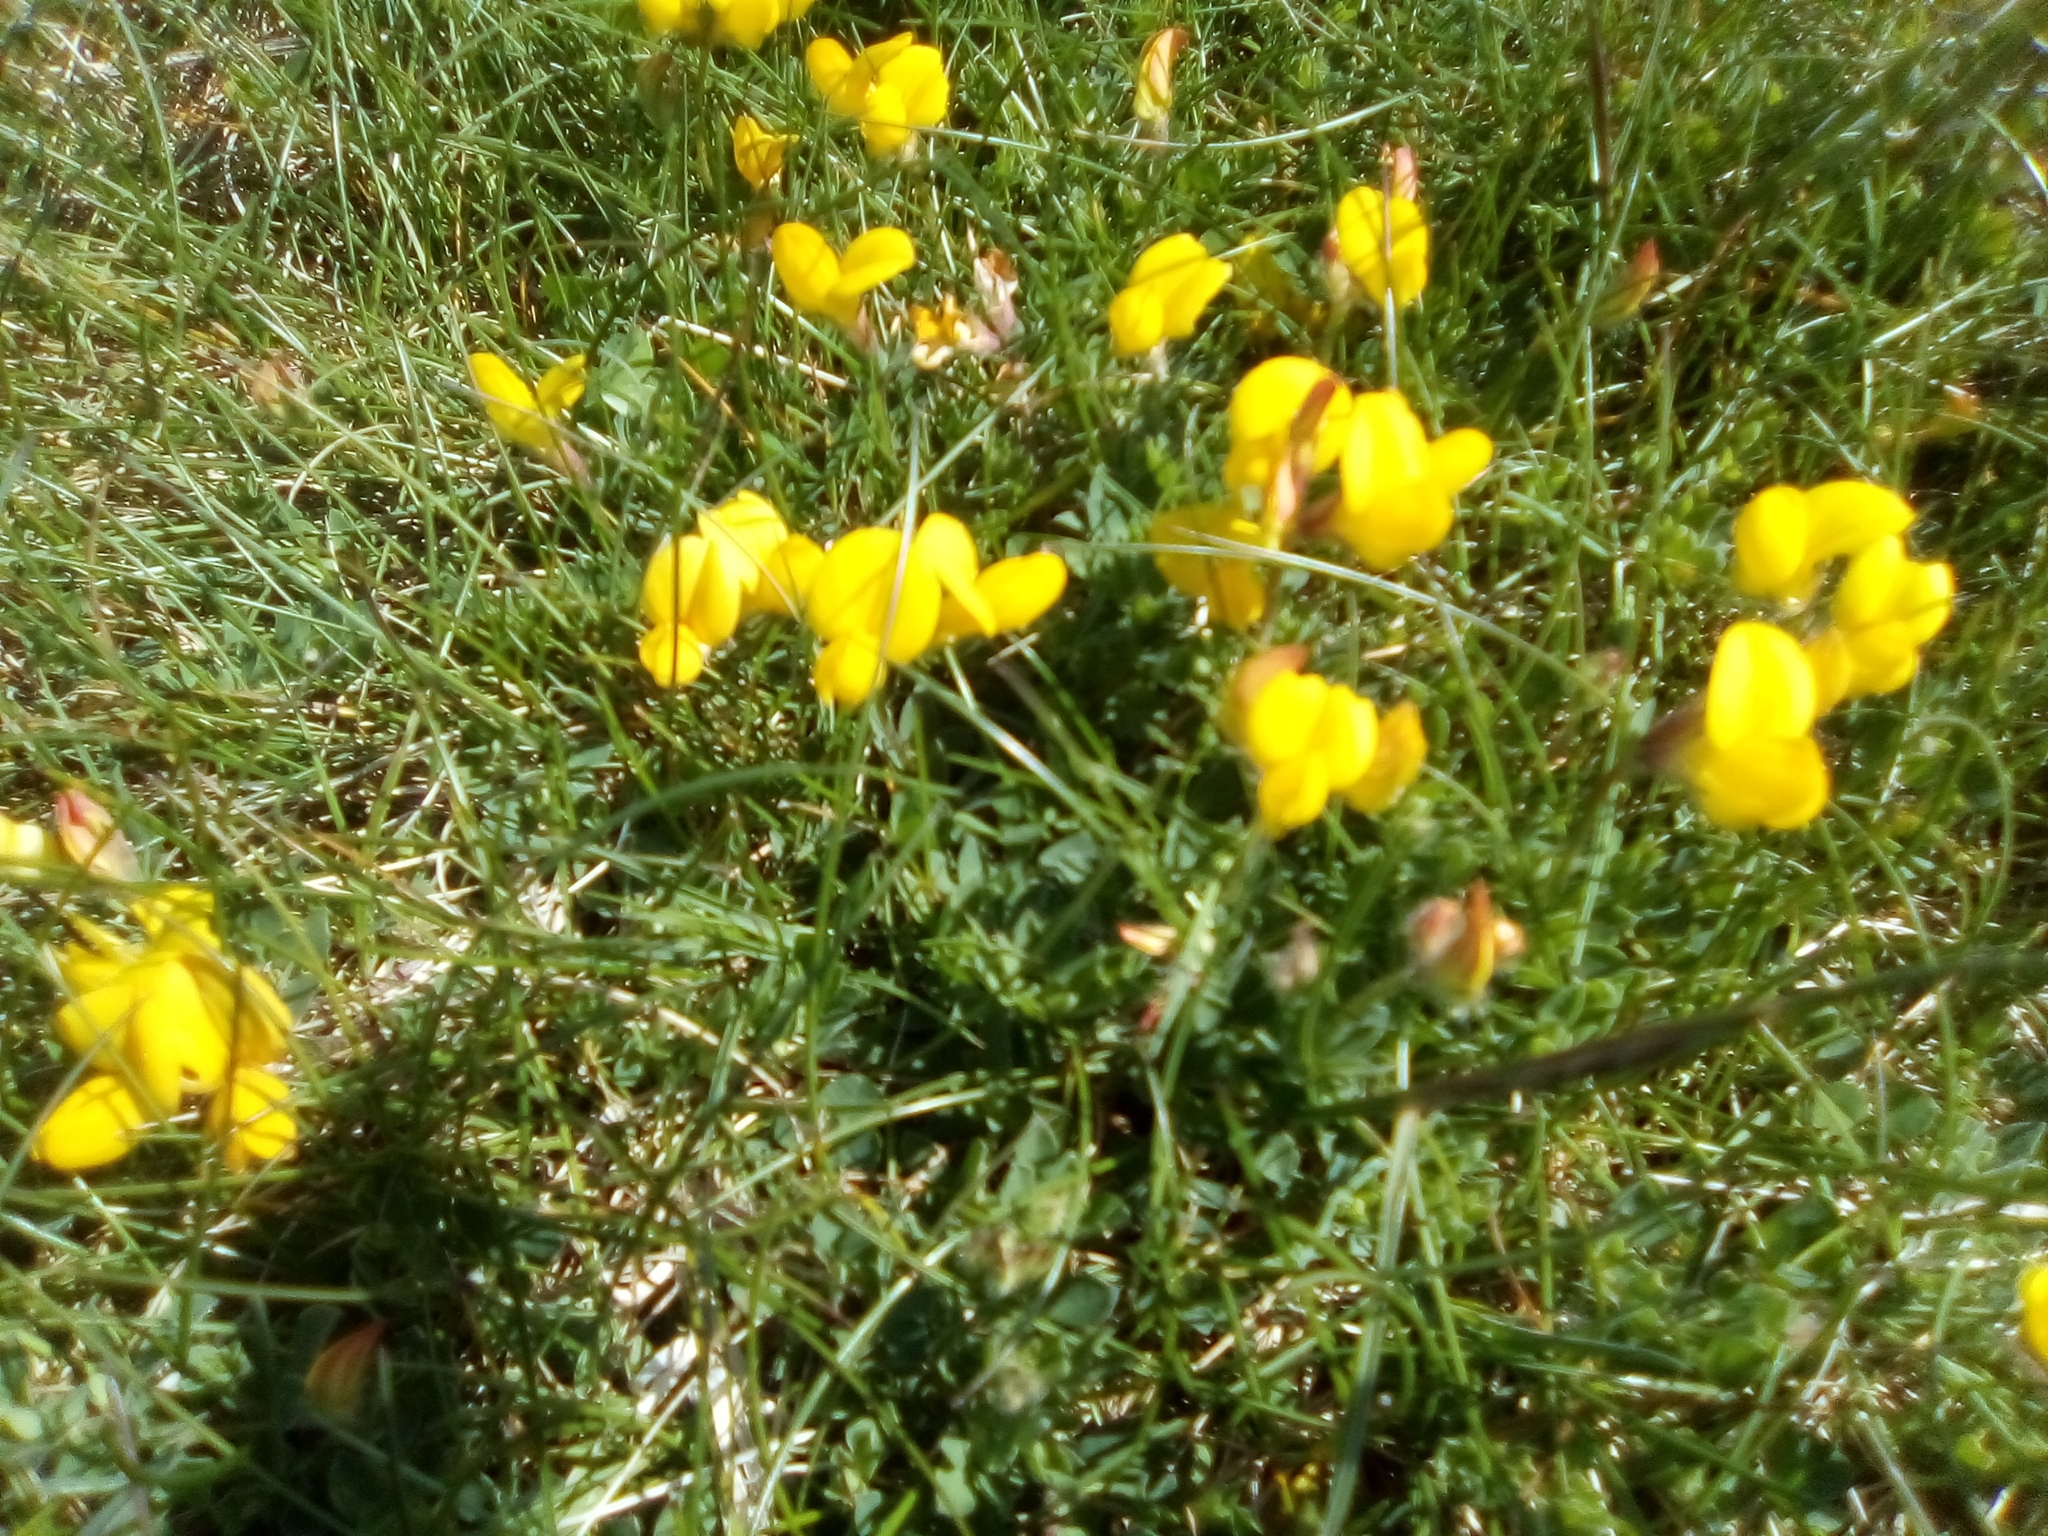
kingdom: Plantae
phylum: Tracheophyta
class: Magnoliopsida
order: Fabales
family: Fabaceae
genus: Lotus
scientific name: Lotus corniculatus
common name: Common bird's-foot-trefoil
